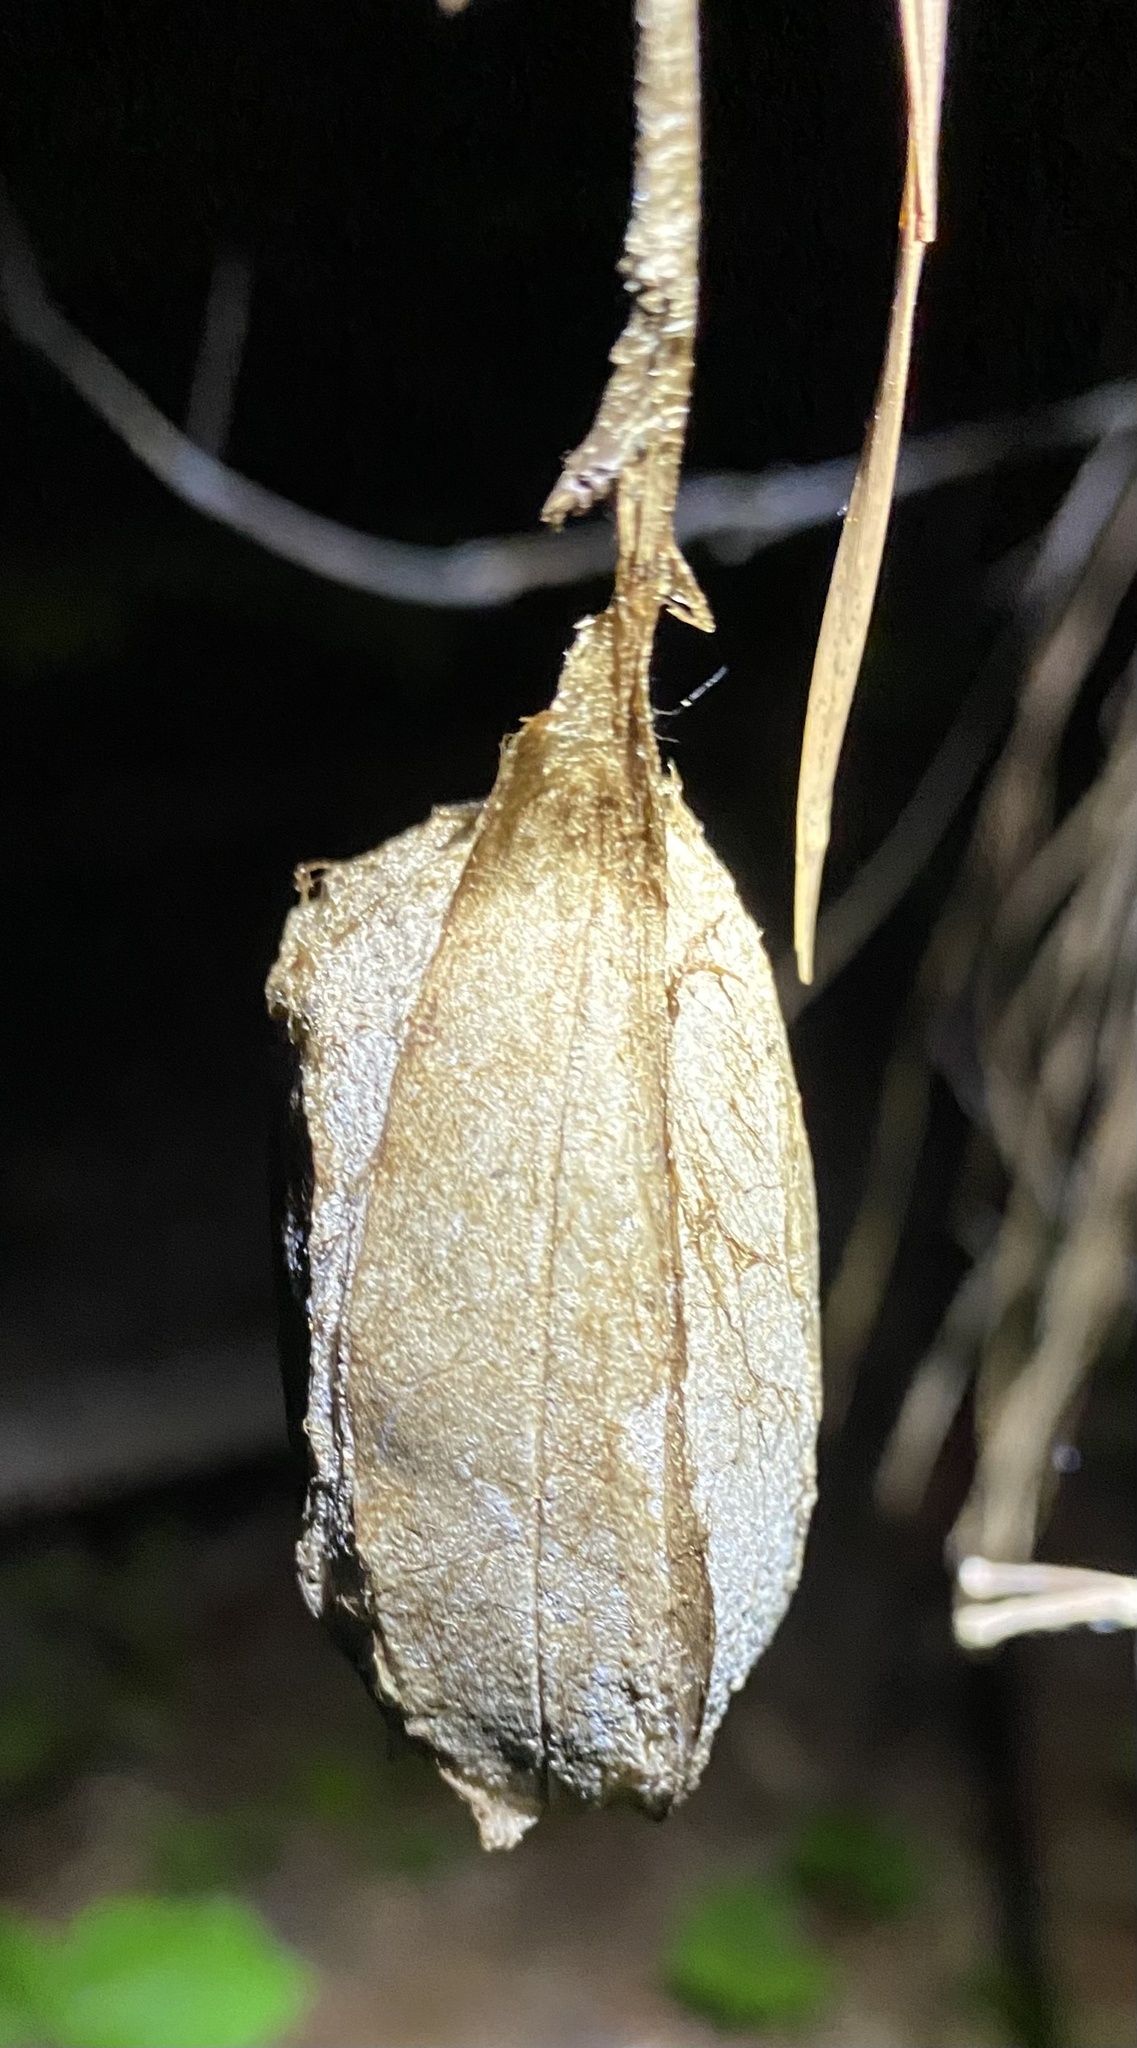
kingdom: Animalia
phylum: Arthropoda
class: Insecta
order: Lepidoptera
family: Saturniidae
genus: Antheraea
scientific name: Antheraea polyphemus
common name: Polyphemus moth
